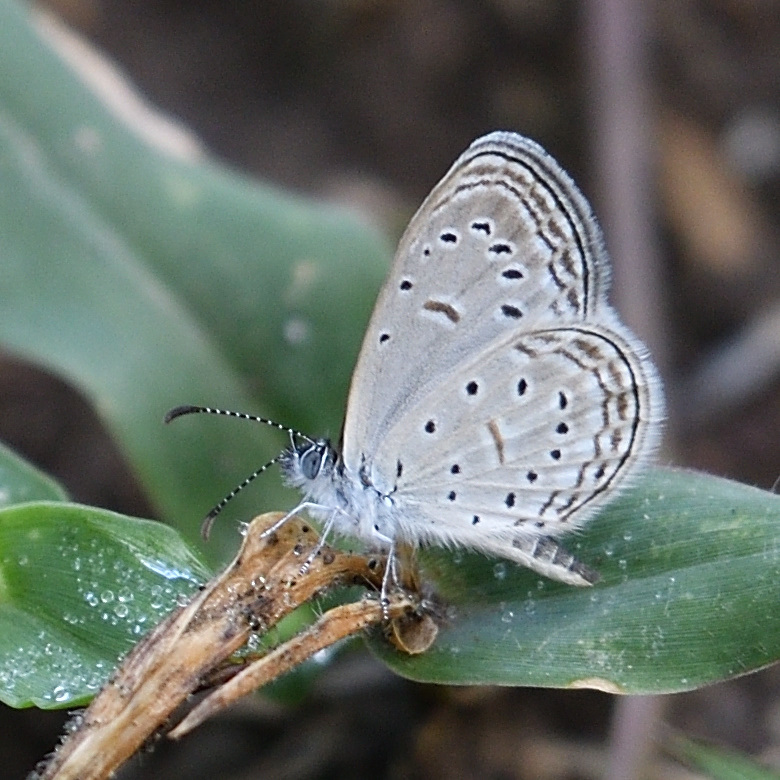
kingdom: Animalia
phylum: Arthropoda
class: Insecta
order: Lepidoptera
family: Lycaenidae
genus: Zizula
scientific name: Zizula hylax
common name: Gaika blue
